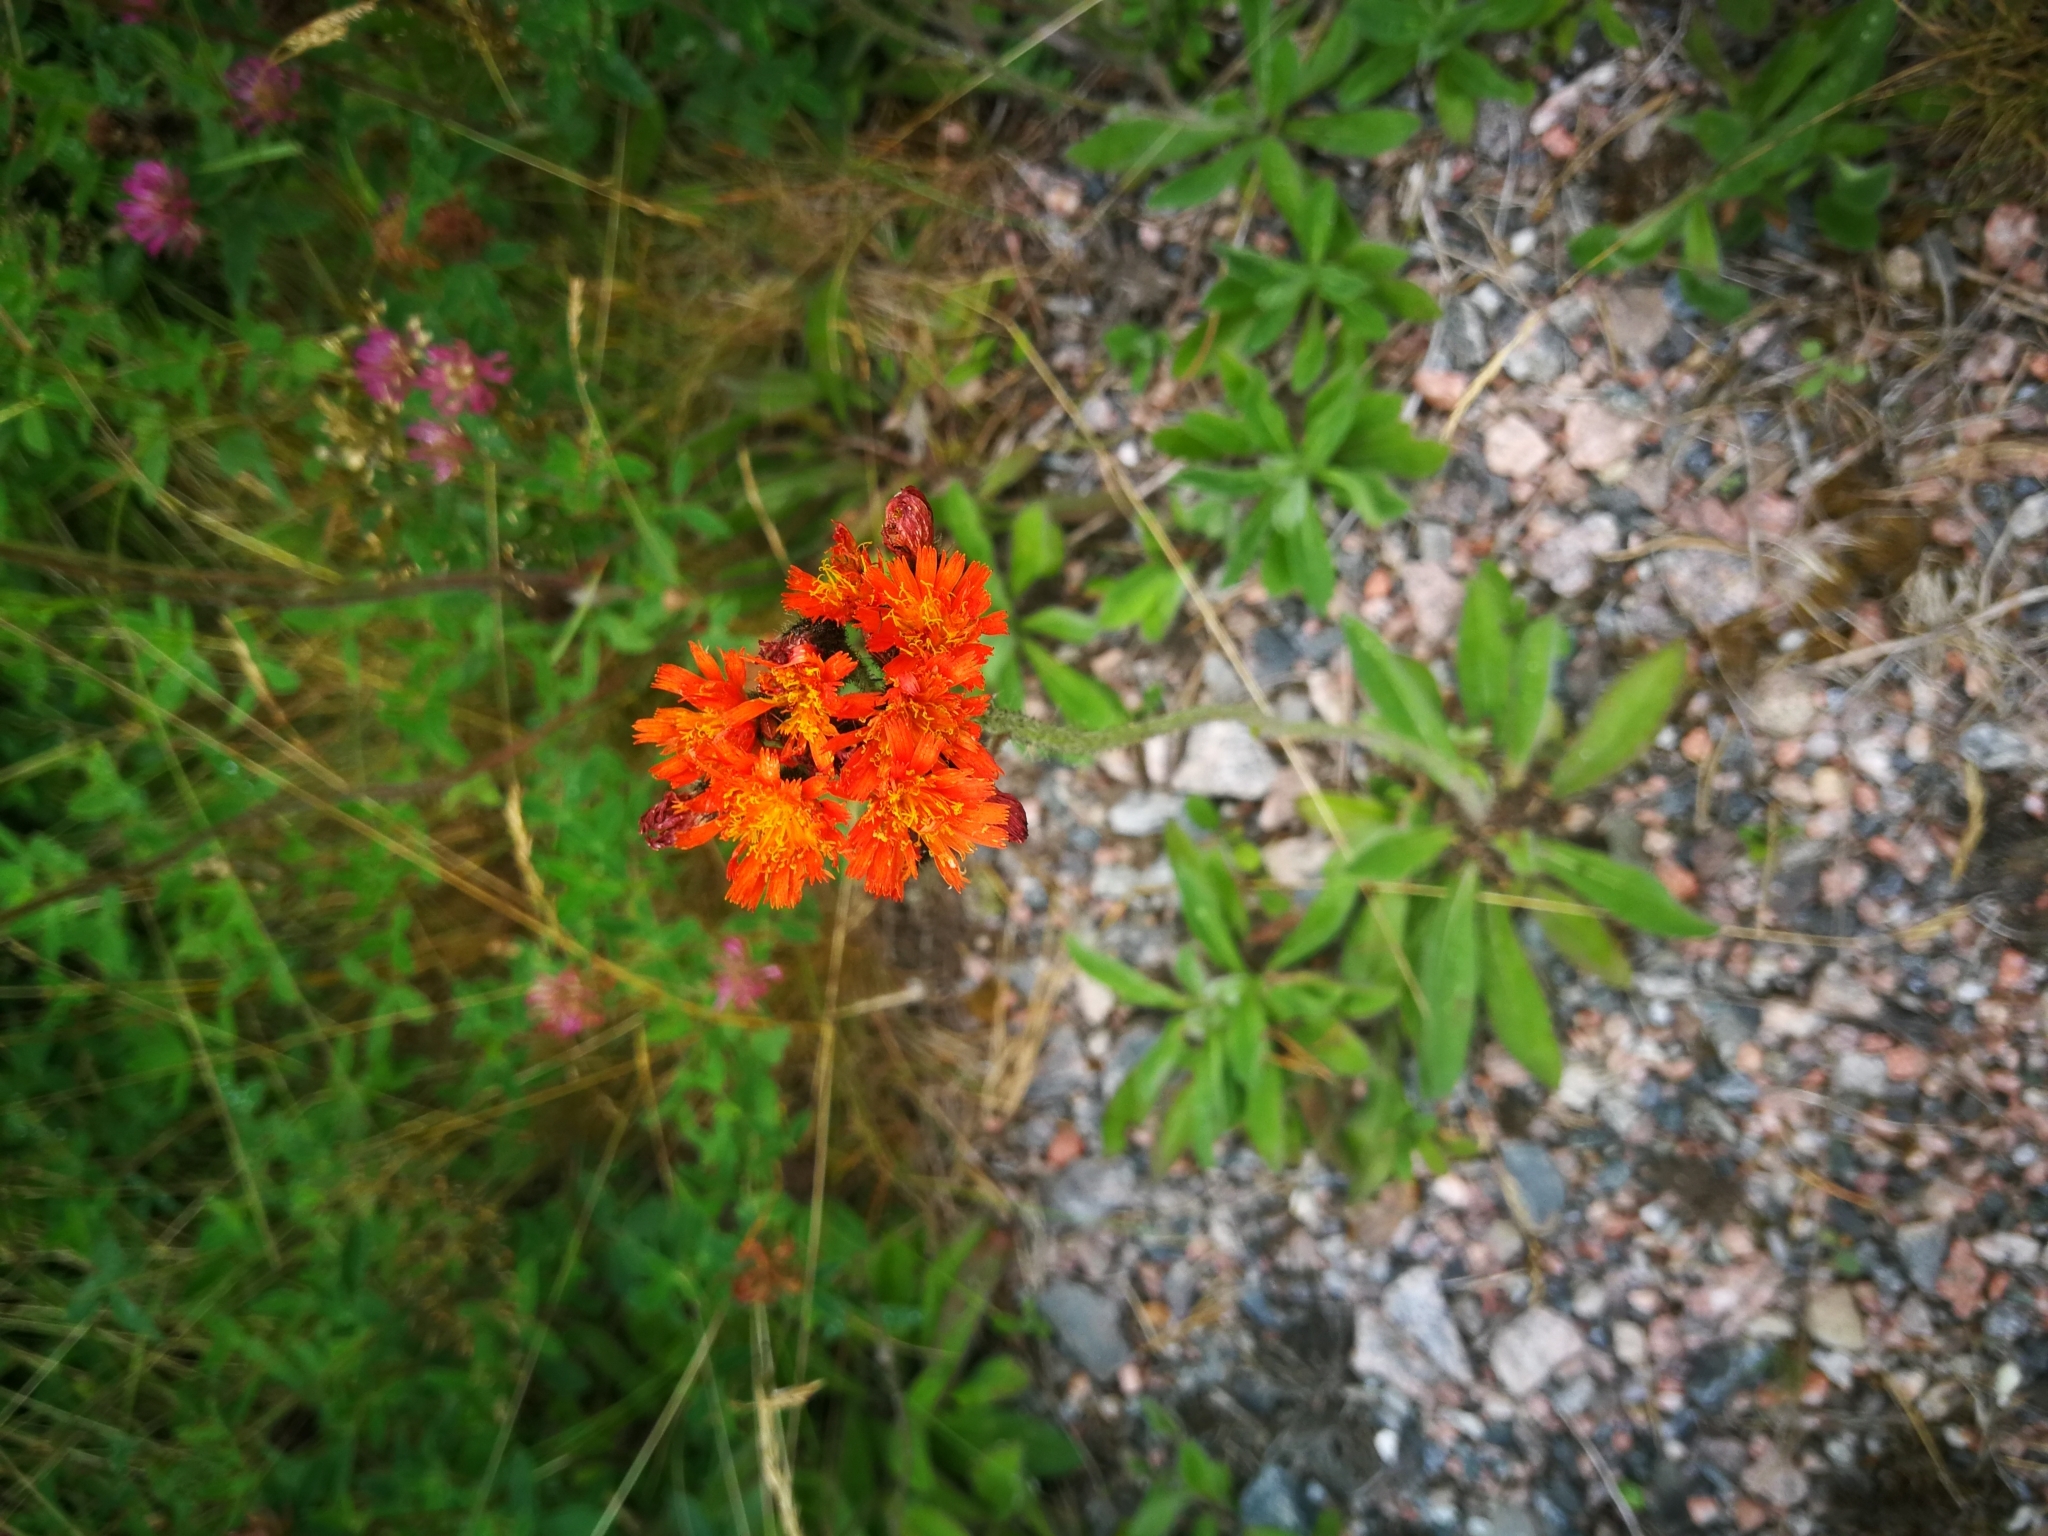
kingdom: Plantae
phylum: Tracheophyta
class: Magnoliopsida
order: Asterales
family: Asteraceae
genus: Pilosella
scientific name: Pilosella aurantiaca
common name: Fox-and-cubs
